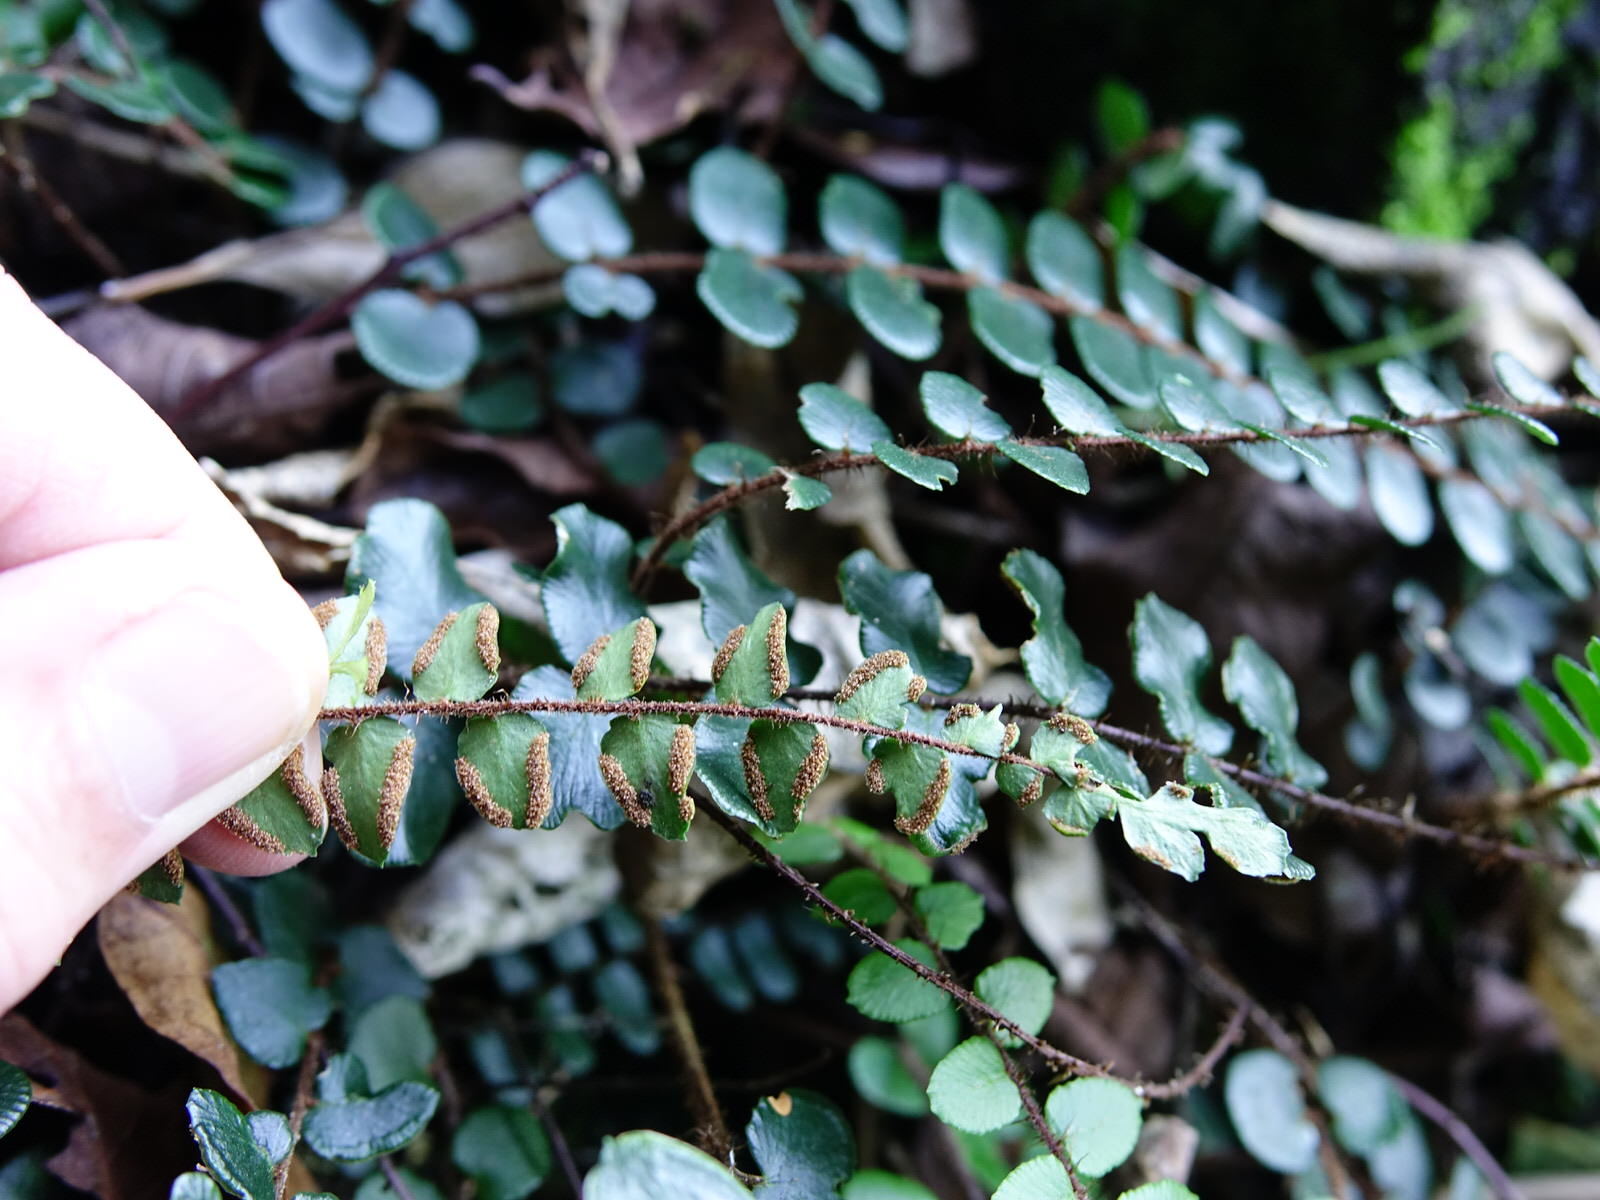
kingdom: Plantae
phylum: Tracheophyta
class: Polypodiopsida
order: Polypodiales
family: Pteridaceae
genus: Pellaea
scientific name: Pellaea rotundifolia
